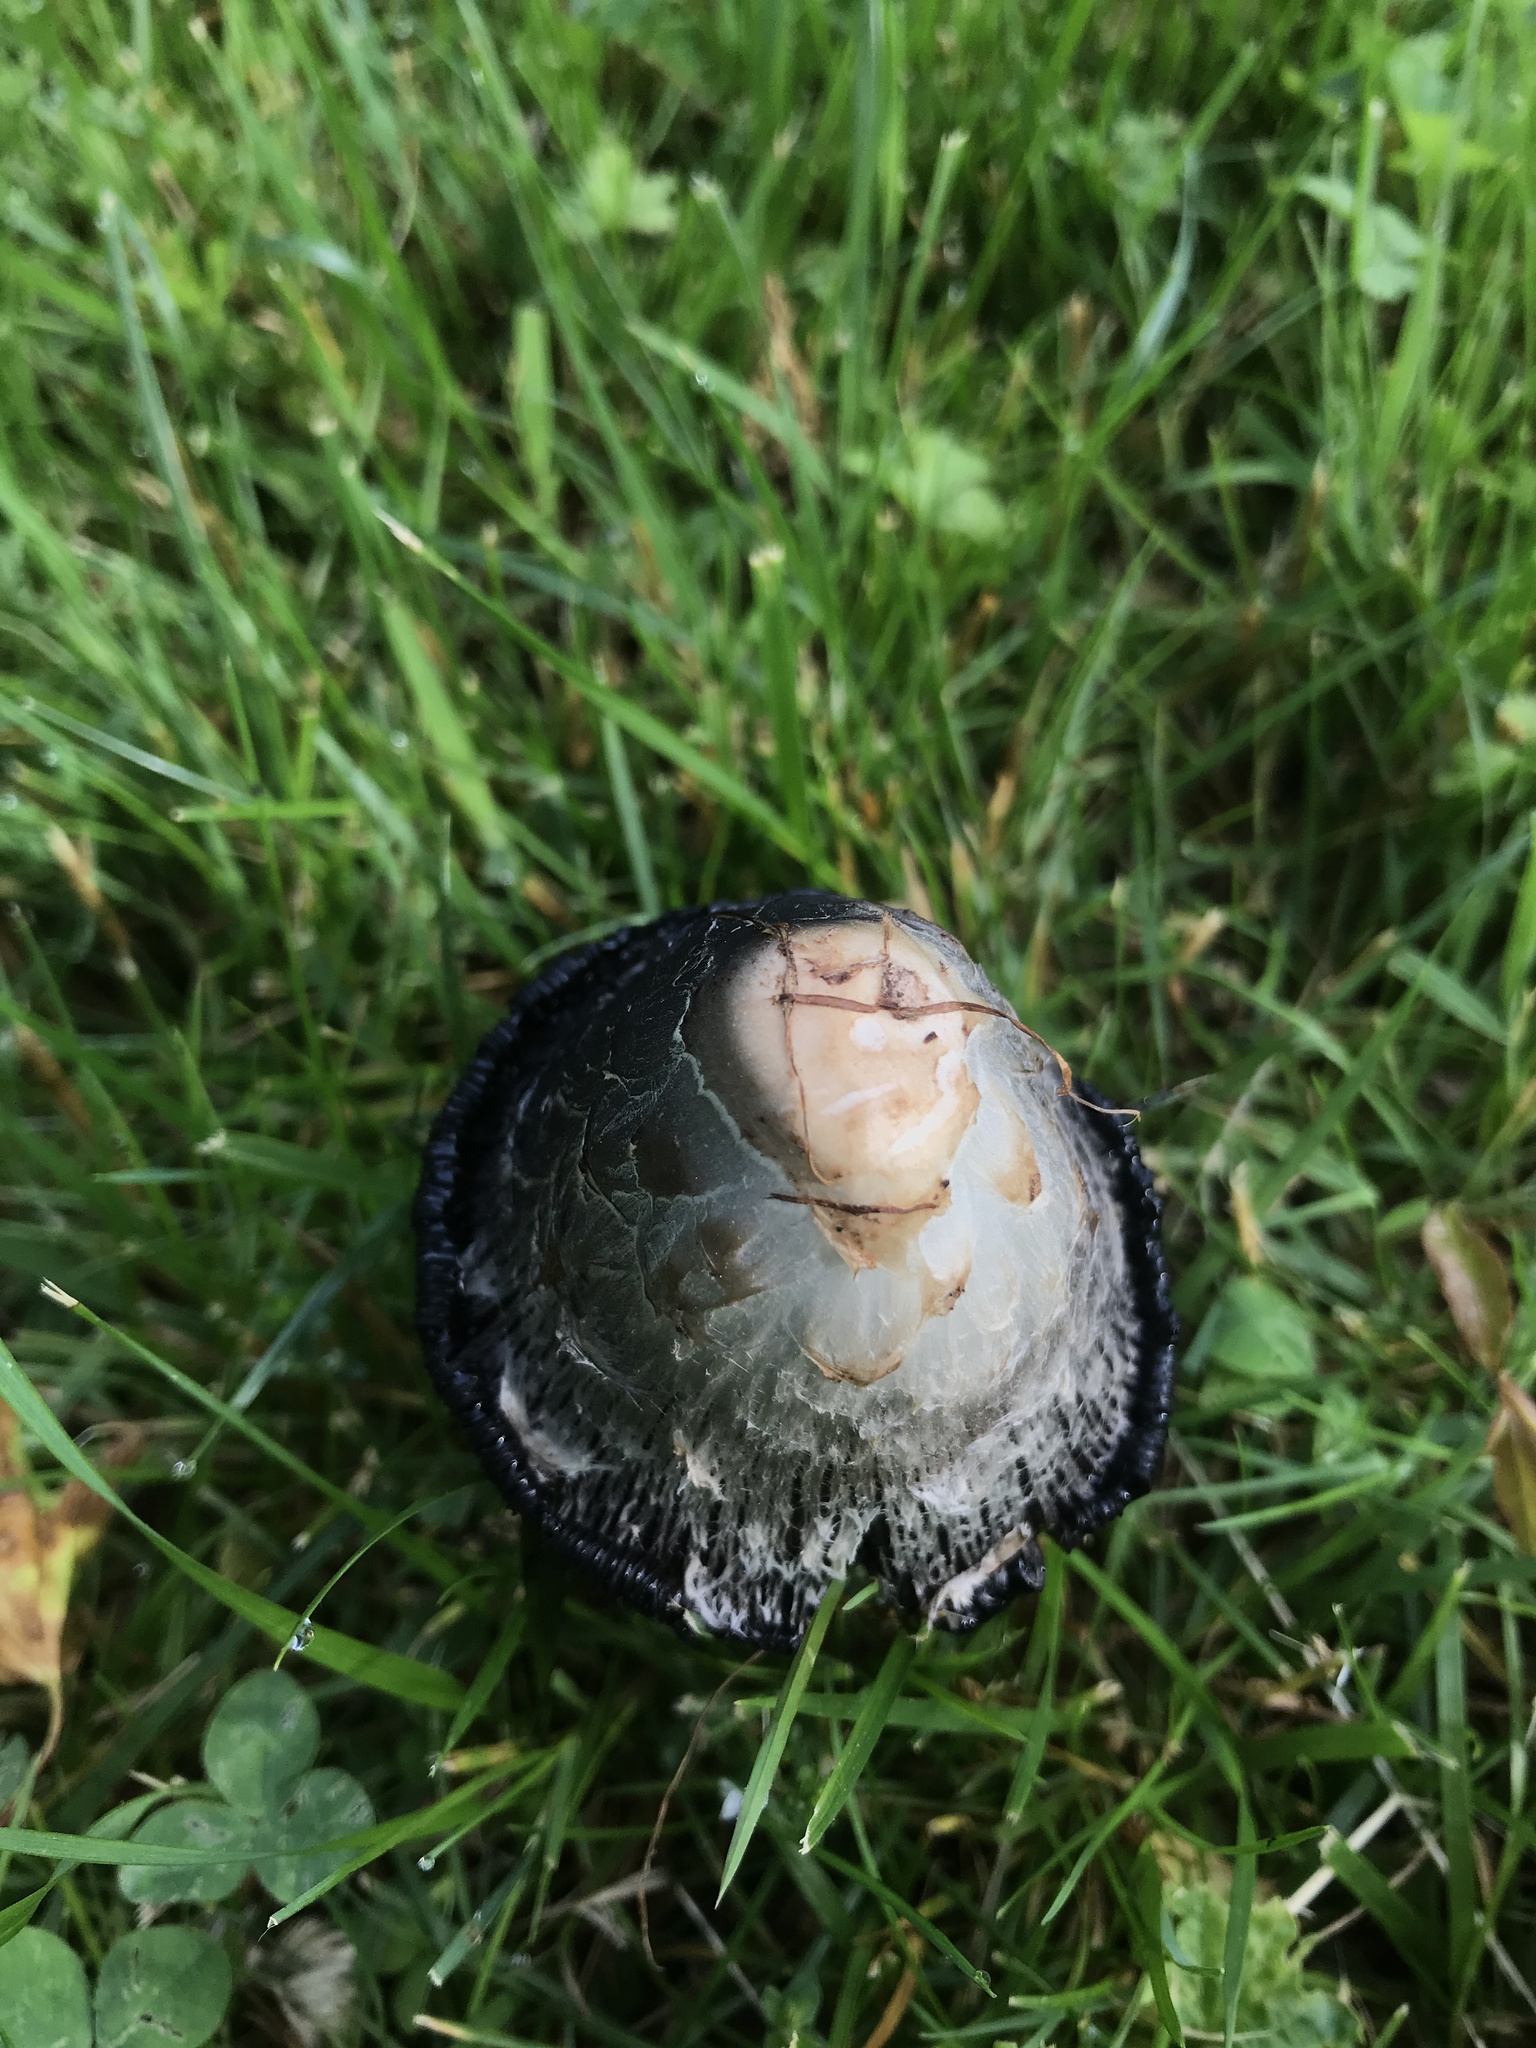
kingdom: Fungi
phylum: Basidiomycota
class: Agaricomycetes
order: Agaricales
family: Agaricaceae
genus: Coprinus
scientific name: Coprinus comatus
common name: Lawyer's wig
